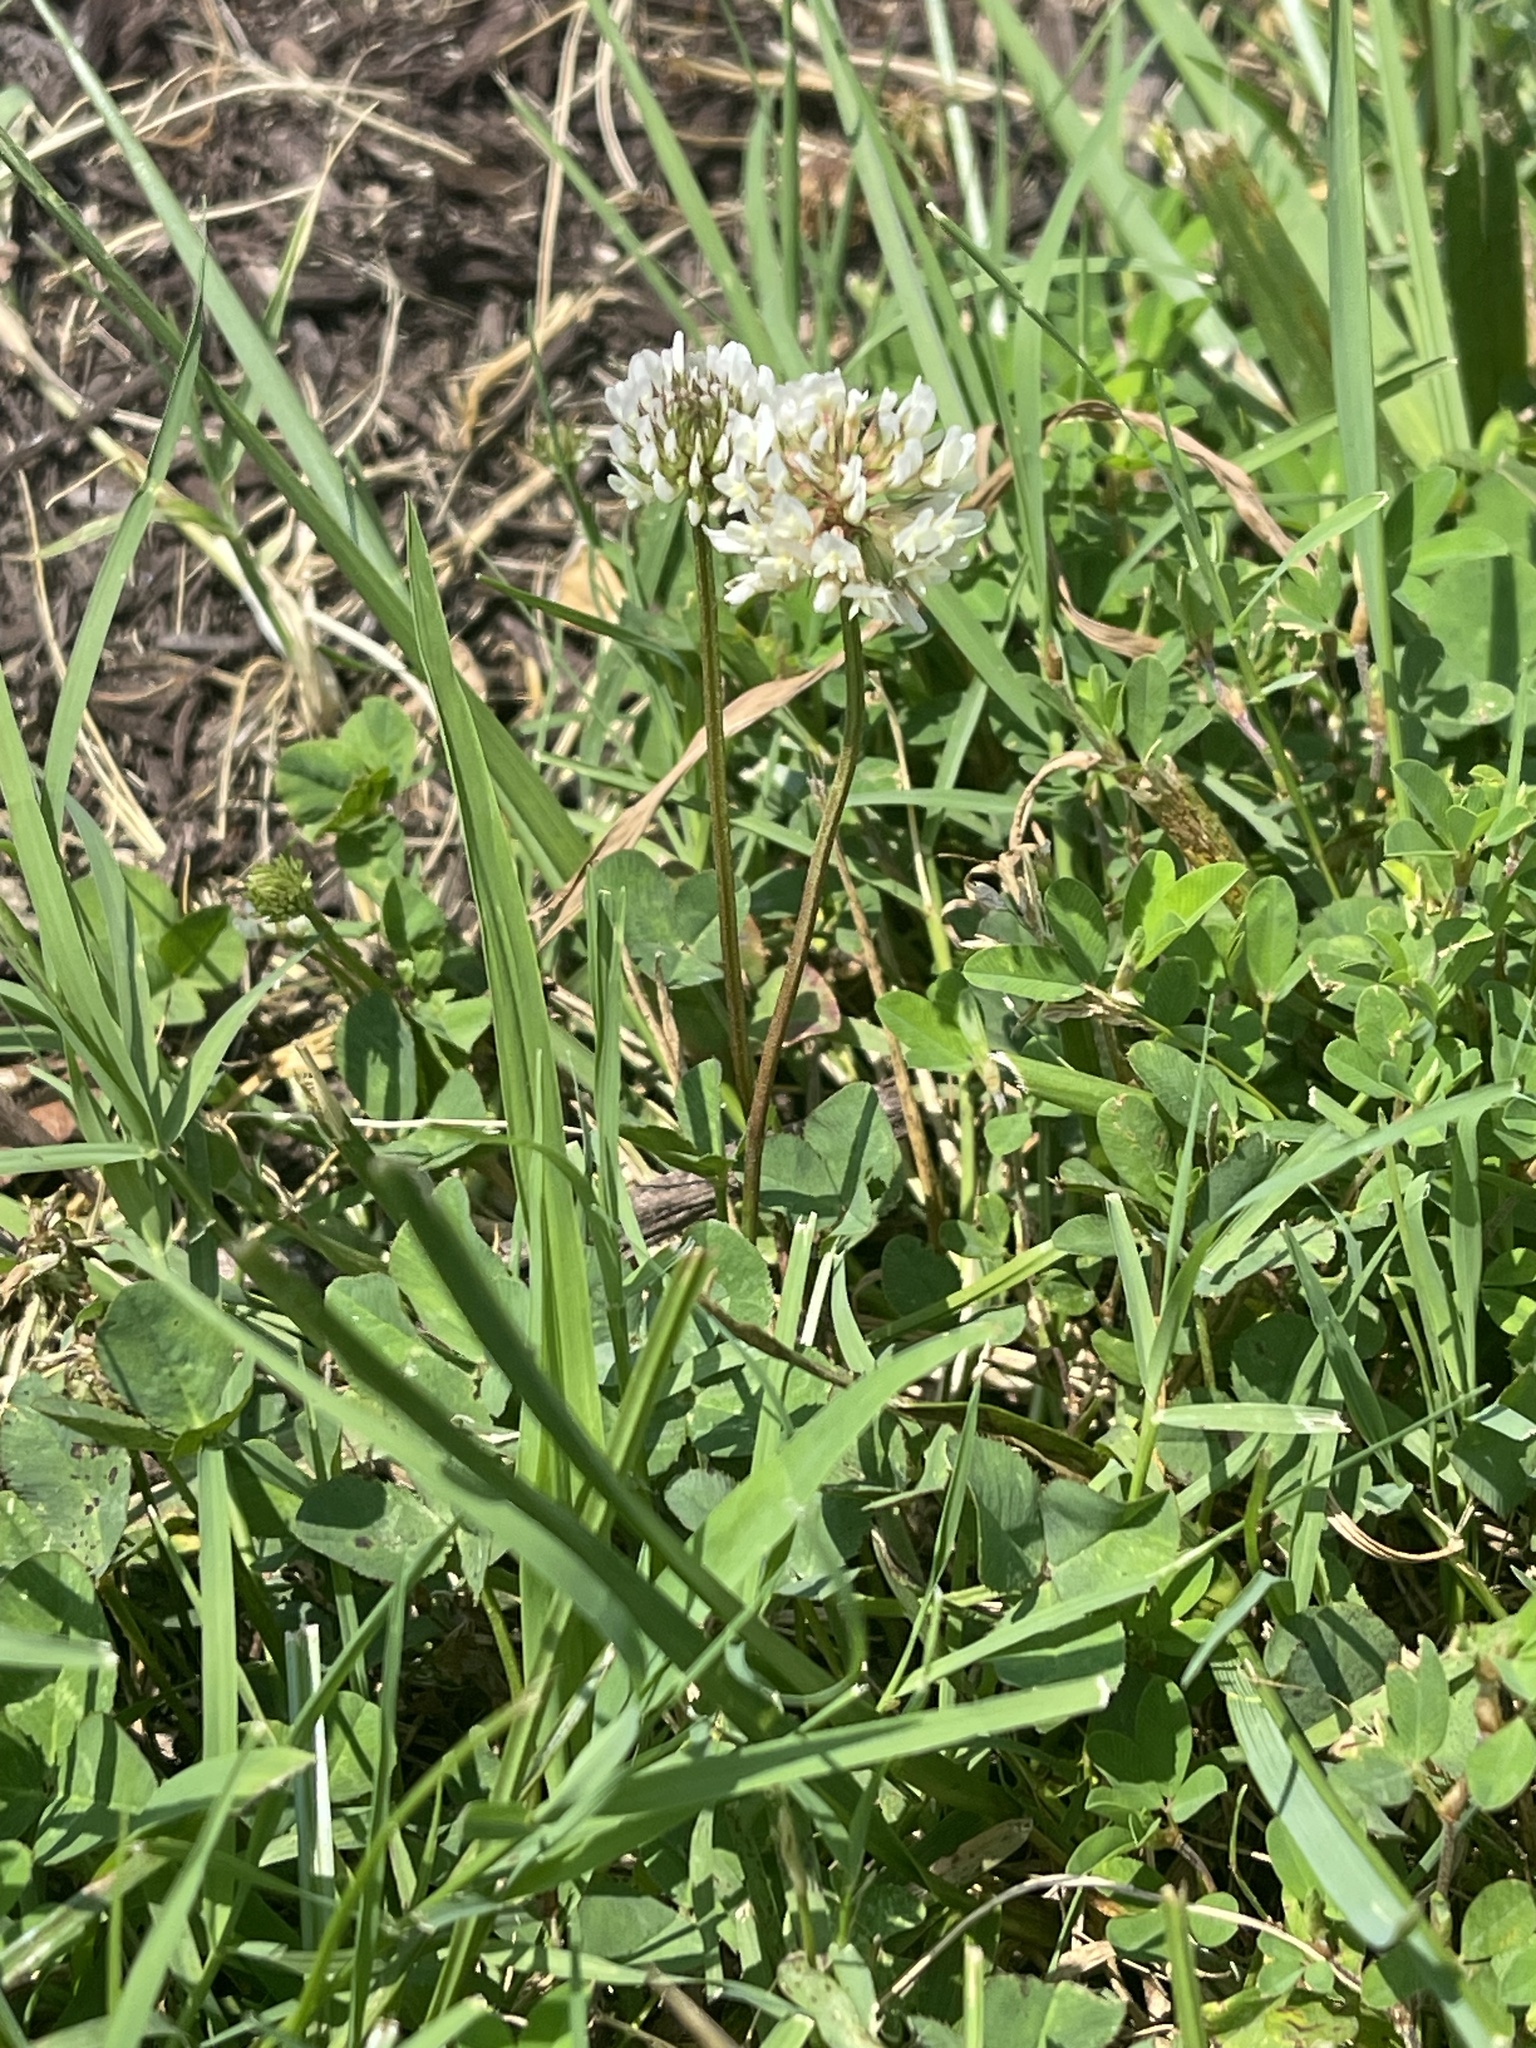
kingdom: Plantae
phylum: Tracheophyta
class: Magnoliopsida
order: Fabales
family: Fabaceae
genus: Trifolium
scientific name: Trifolium repens
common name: White clover
